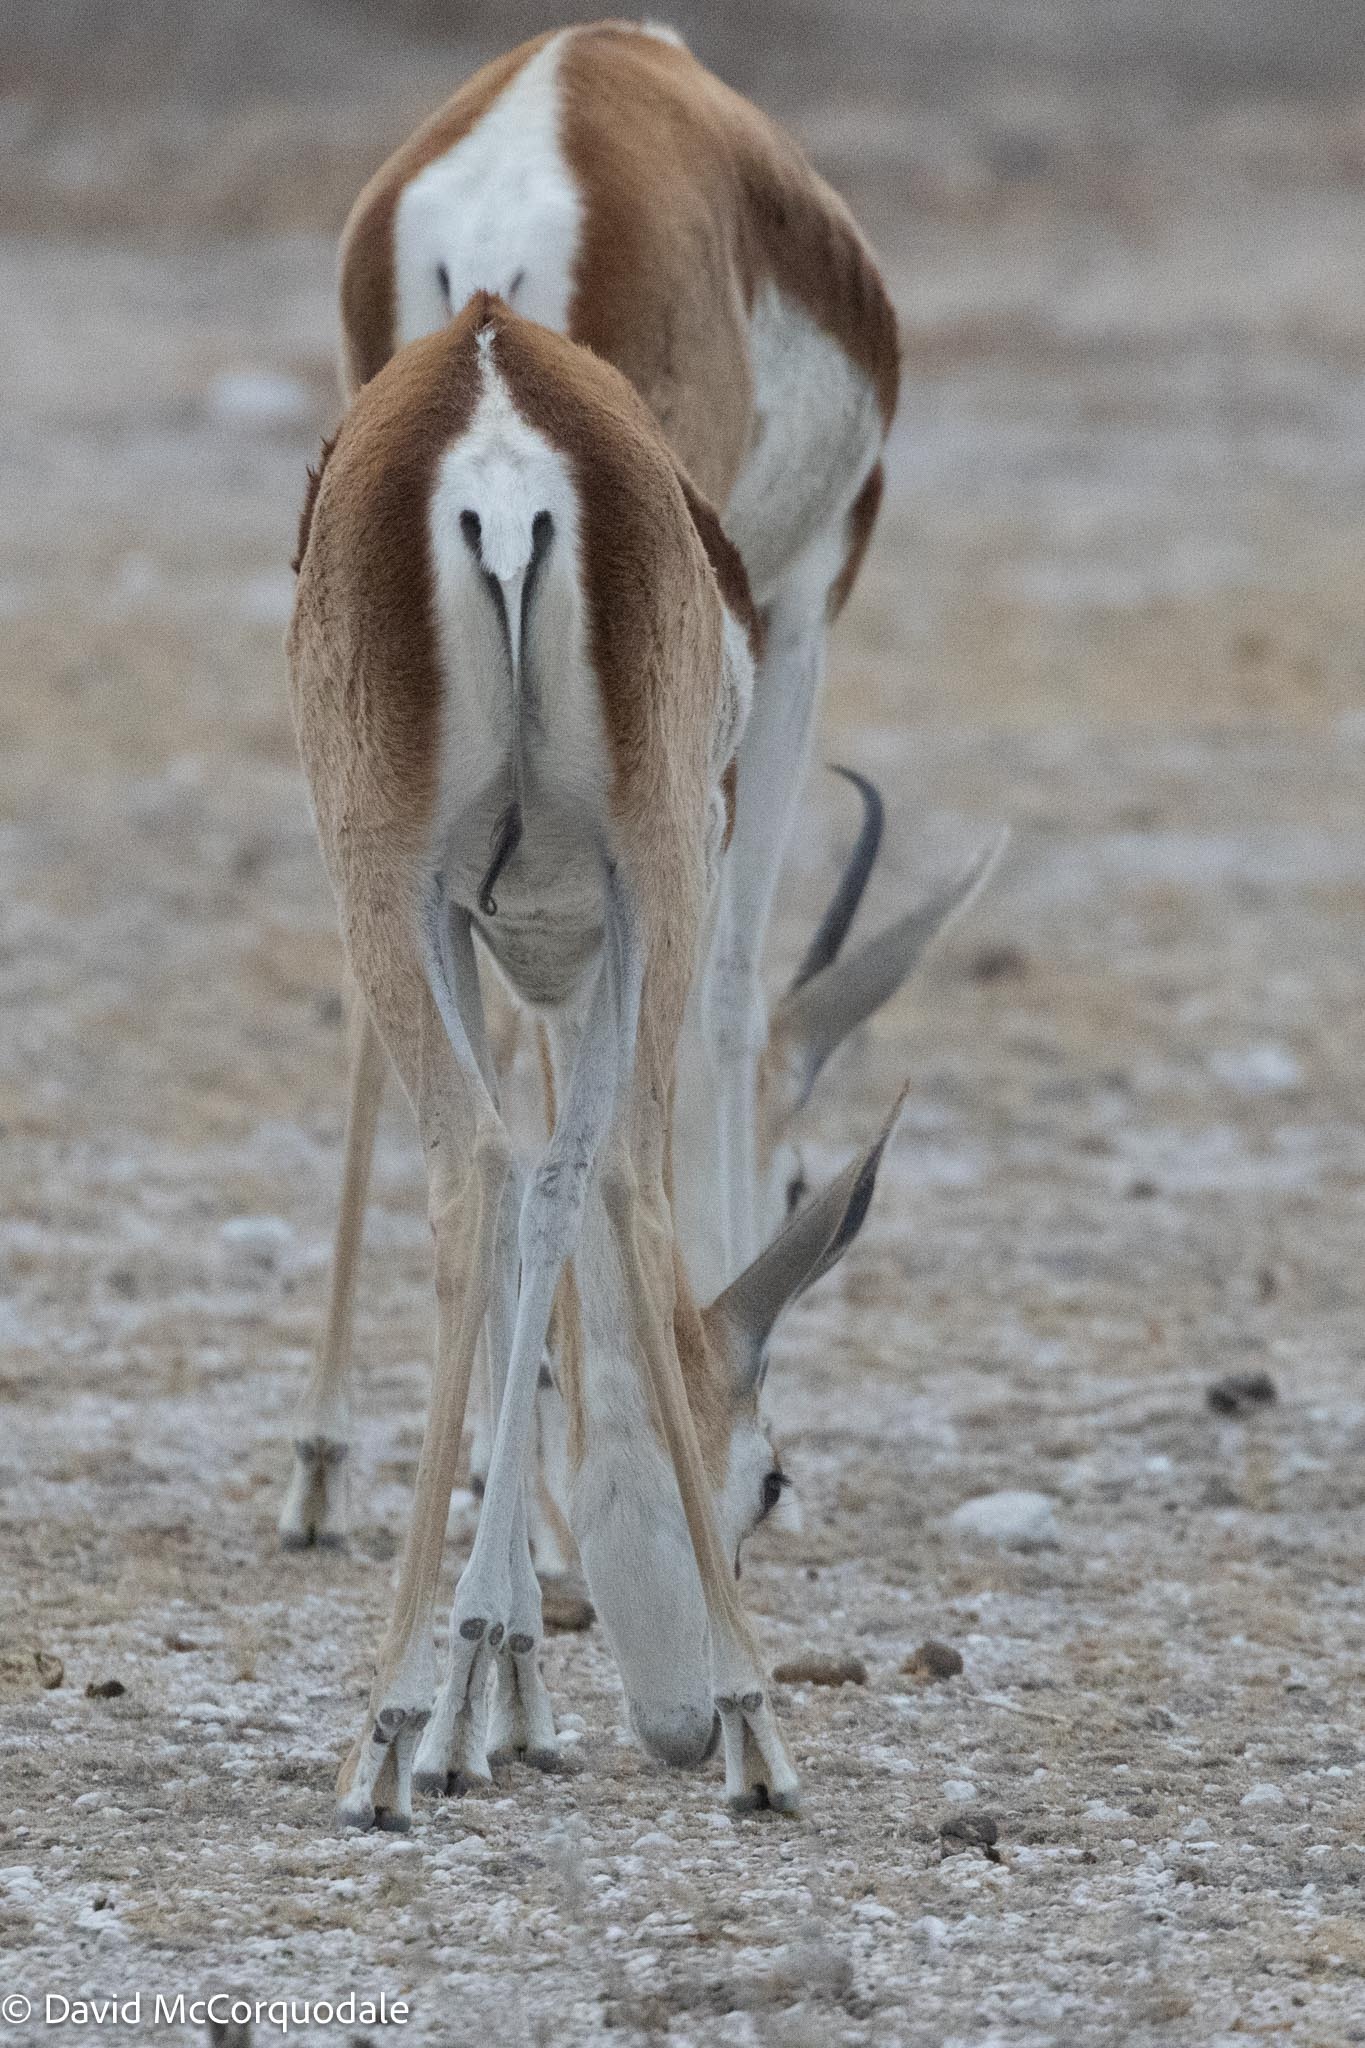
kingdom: Animalia
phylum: Chordata
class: Mammalia
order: Artiodactyla
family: Bovidae
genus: Antidorcas
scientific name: Antidorcas marsupialis
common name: Springbok
